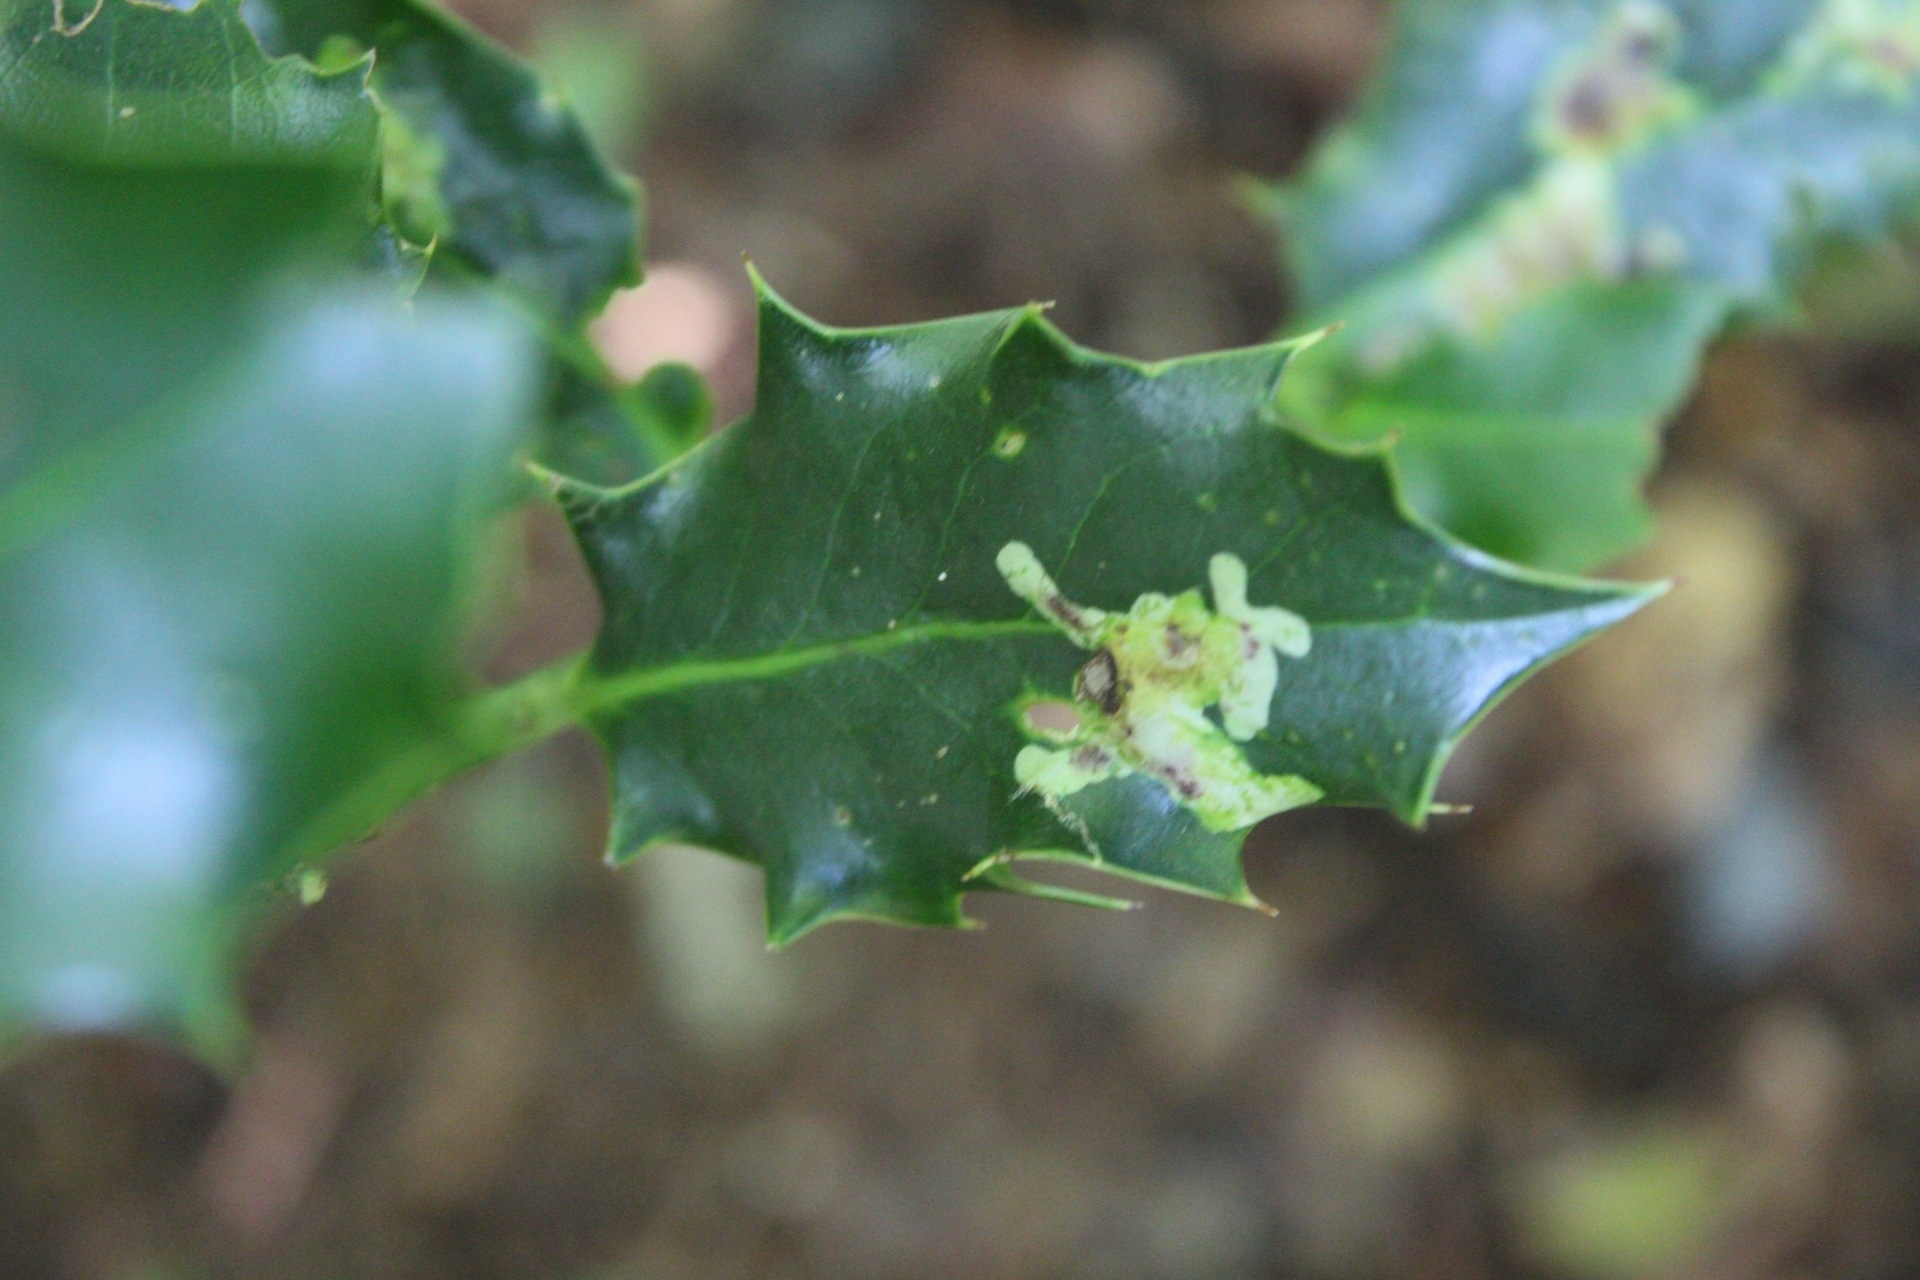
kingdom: Animalia
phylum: Arthropoda
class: Insecta
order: Diptera
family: Agromyzidae
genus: Phytomyza
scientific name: Phytomyza ilicis
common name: Holly leafminer
